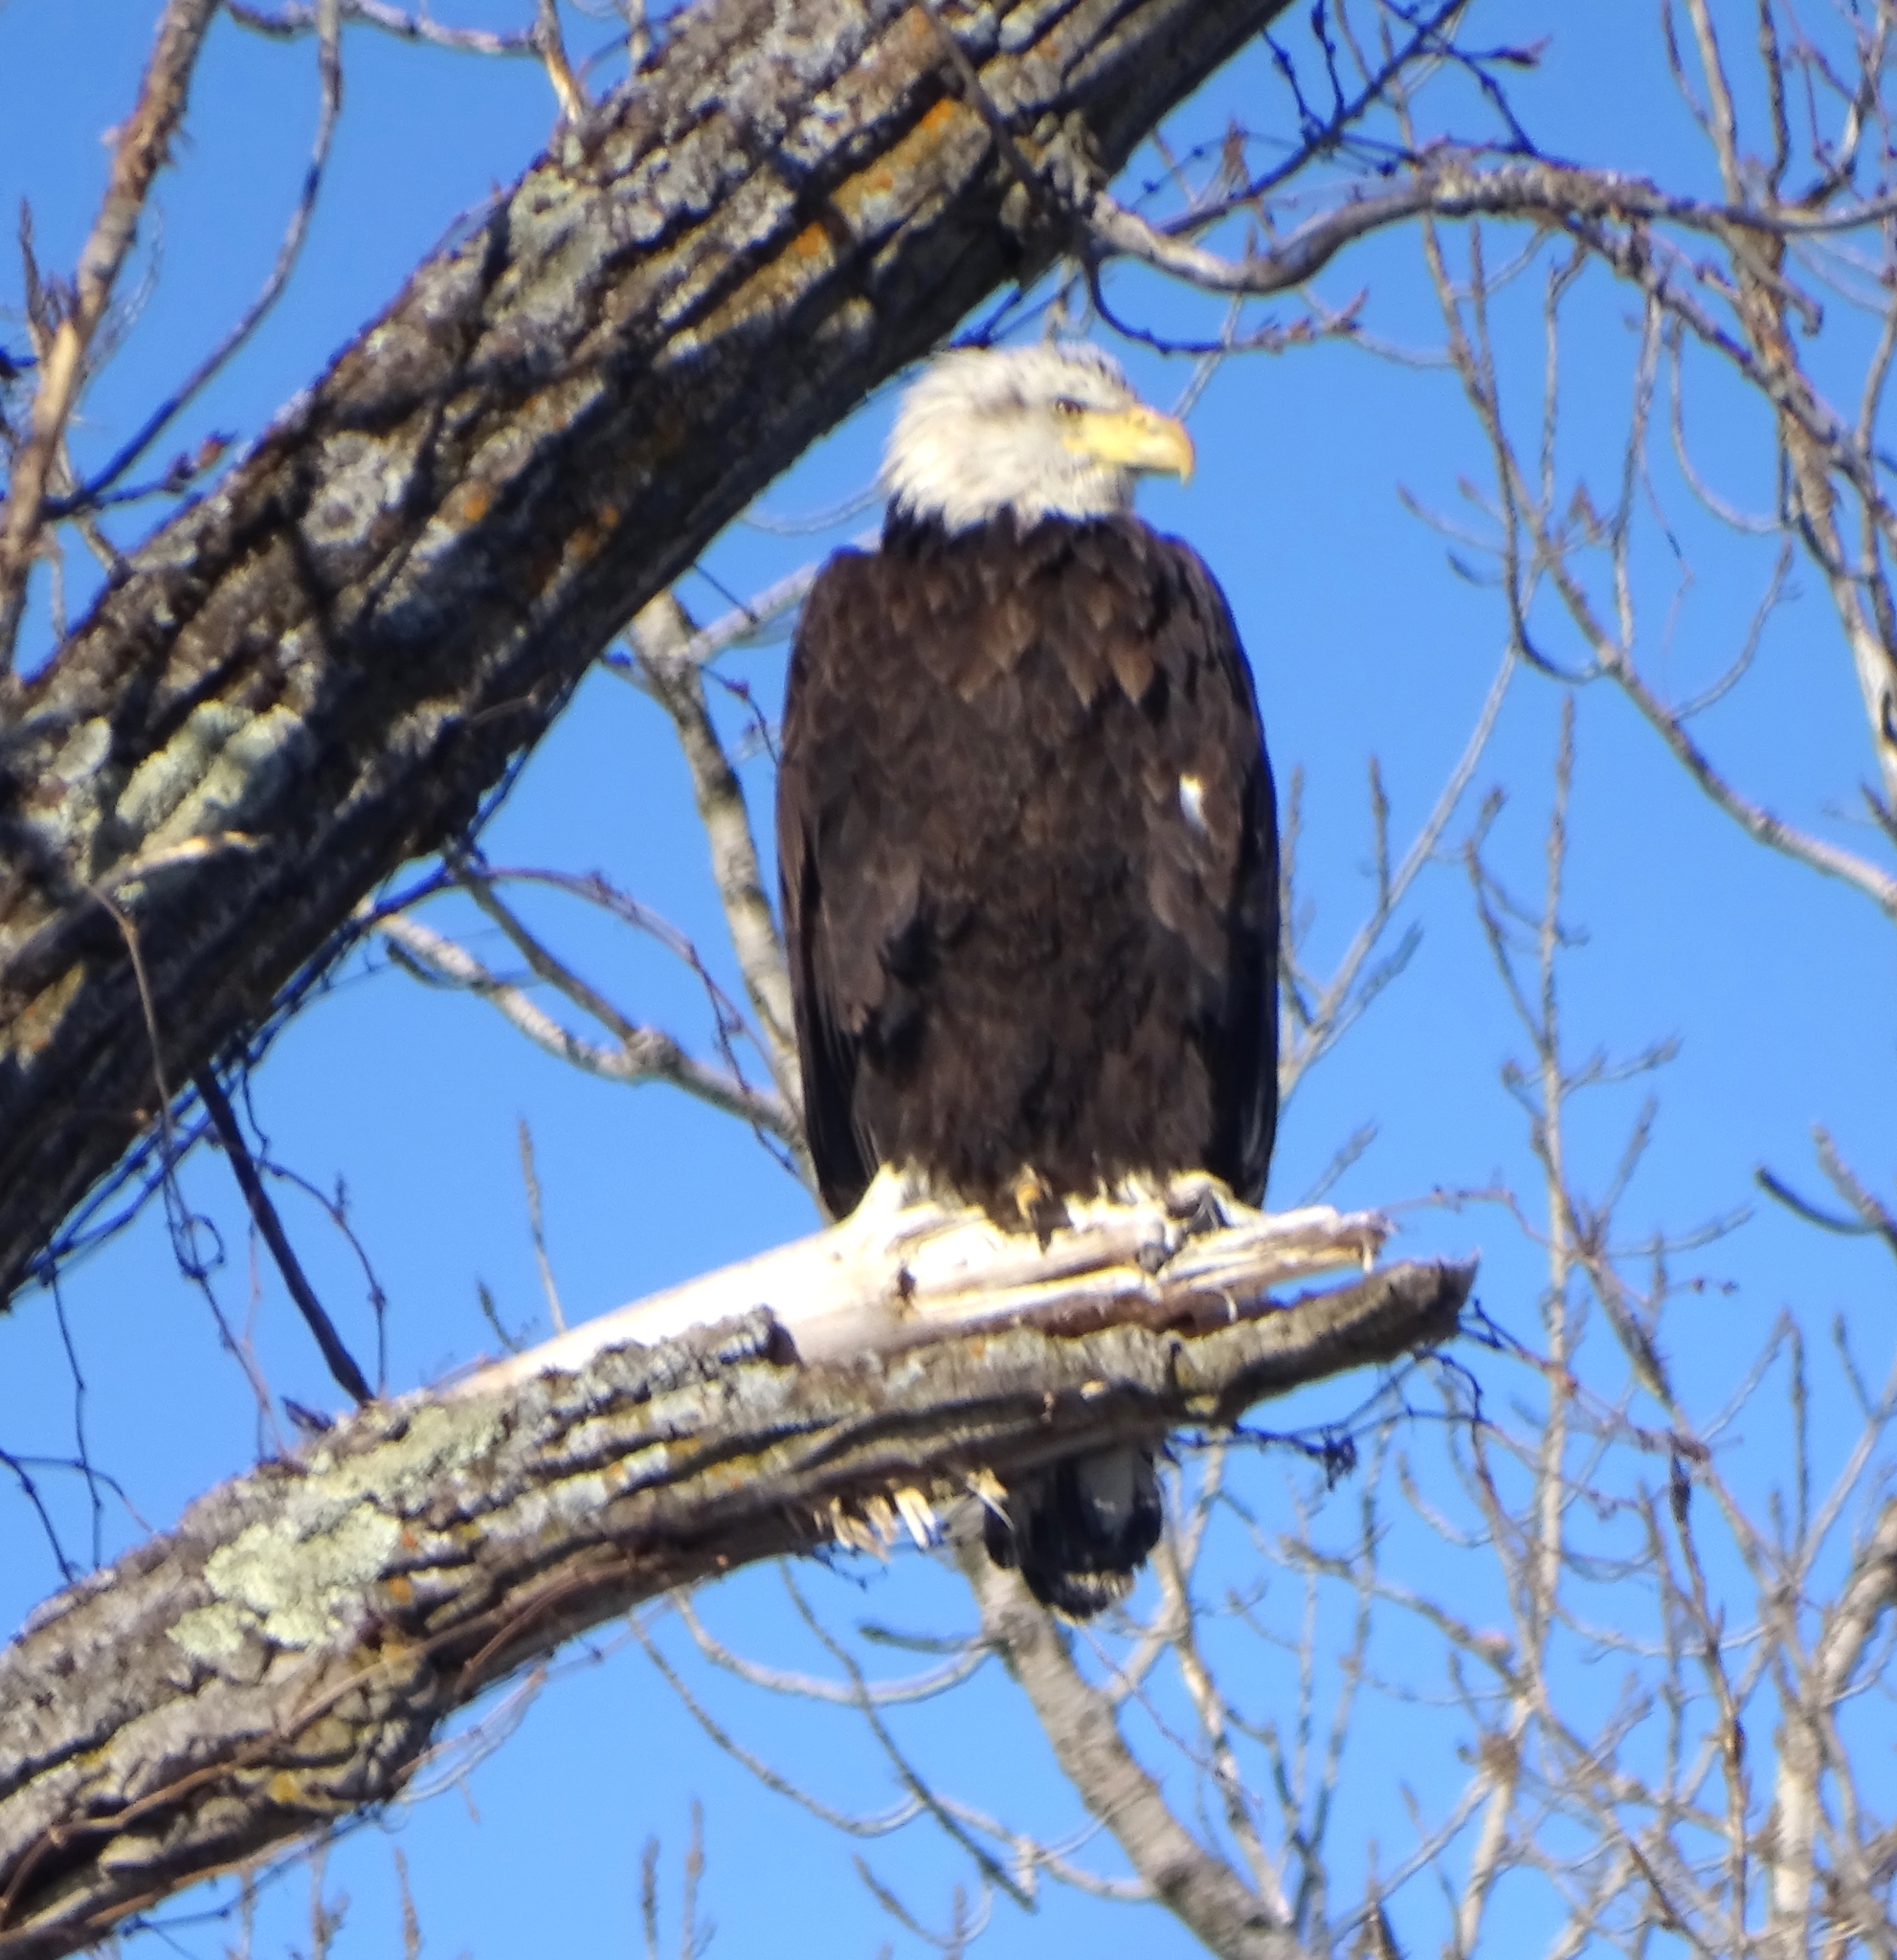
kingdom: Animalia
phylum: Chordata
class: Aves
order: Accipitriformes
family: Accipitridae
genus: Haliaeetus
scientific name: Haliaeetus leucocephalus
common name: Bald eagle
